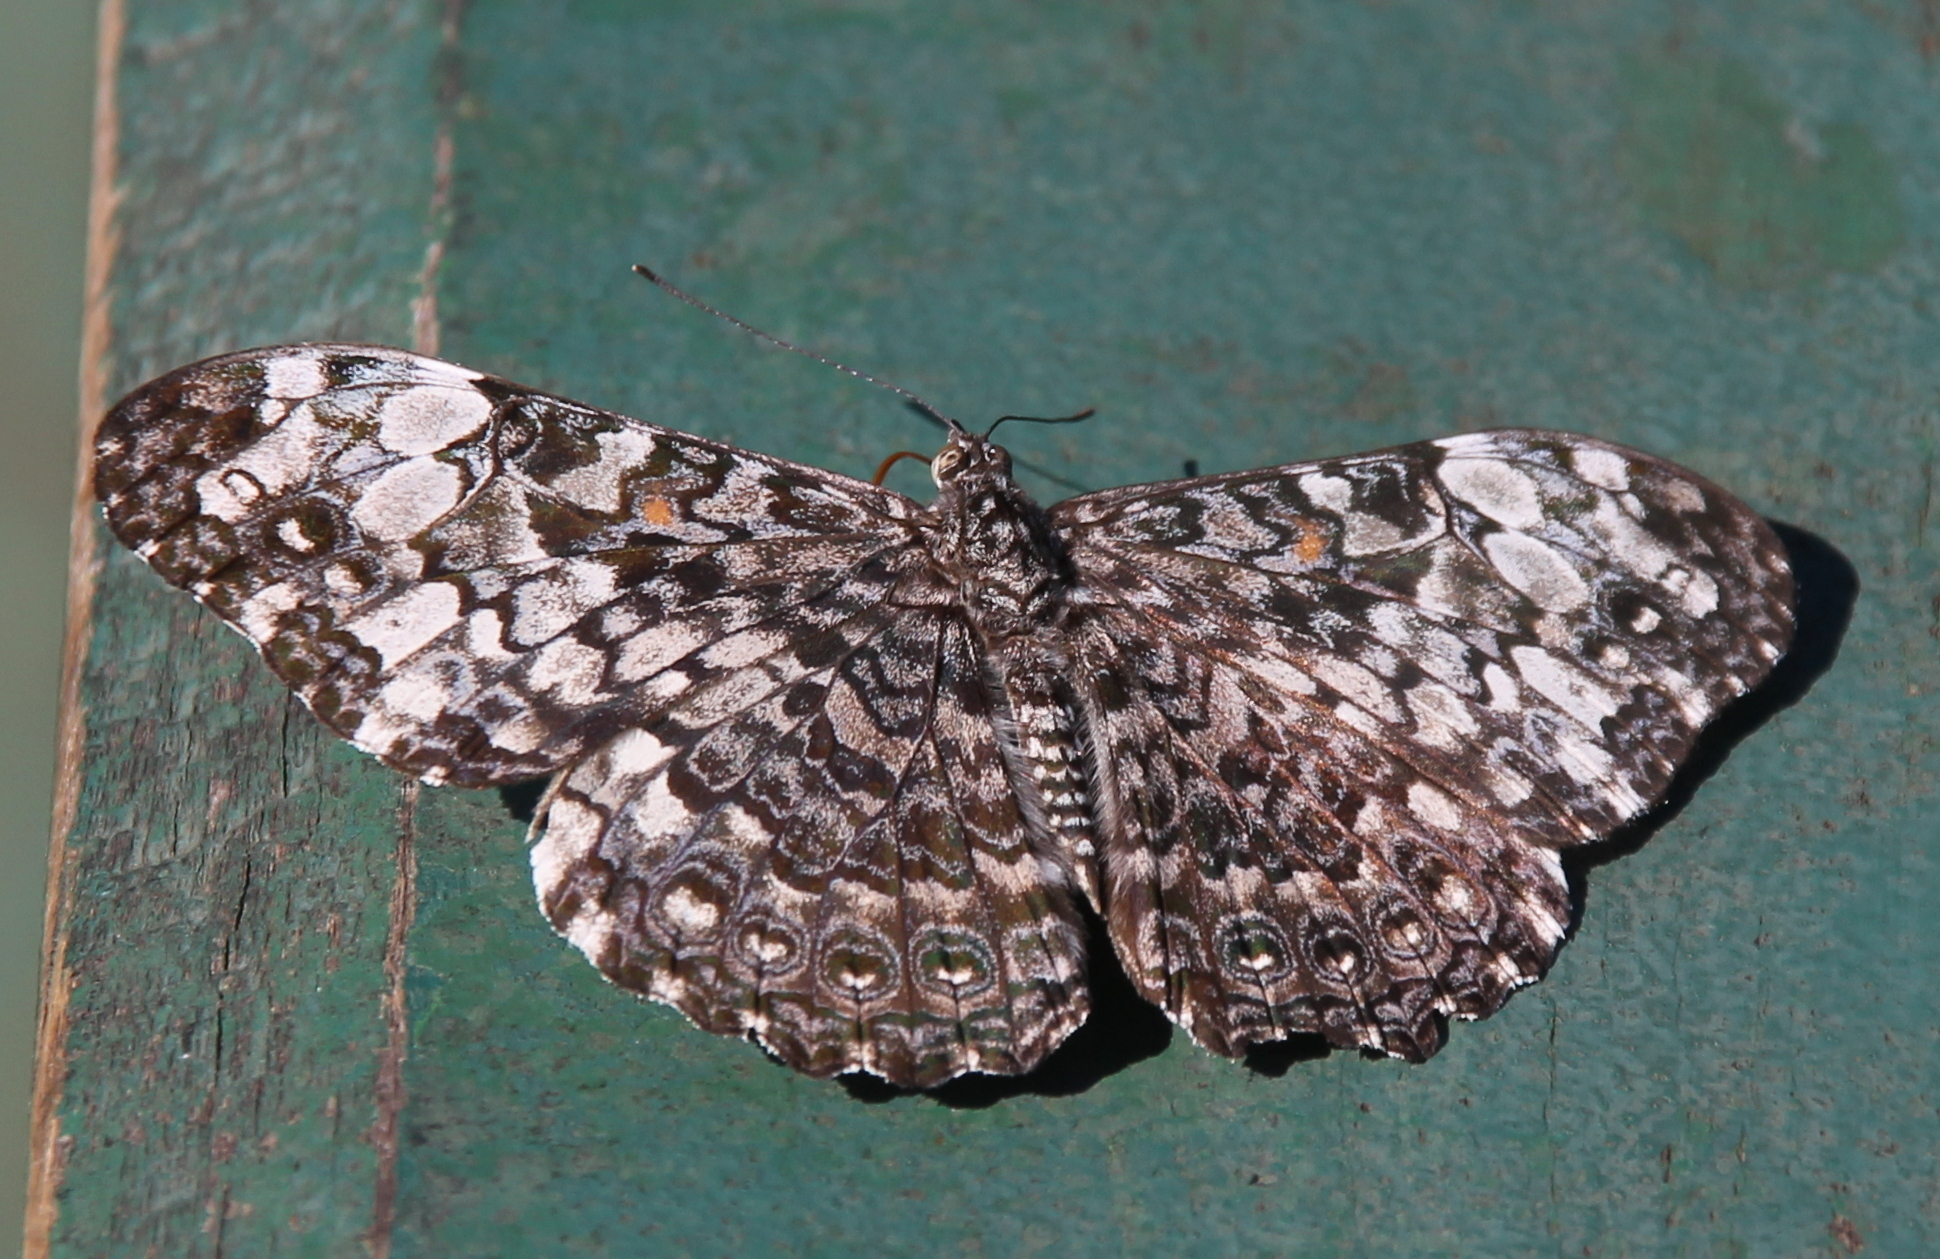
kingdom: Animalia
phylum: Arthropoda
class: Insecta
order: Lepidoptera
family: Nymphalidae
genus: Hamadryas
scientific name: Hamadryas epinome
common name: Epinome cracker
